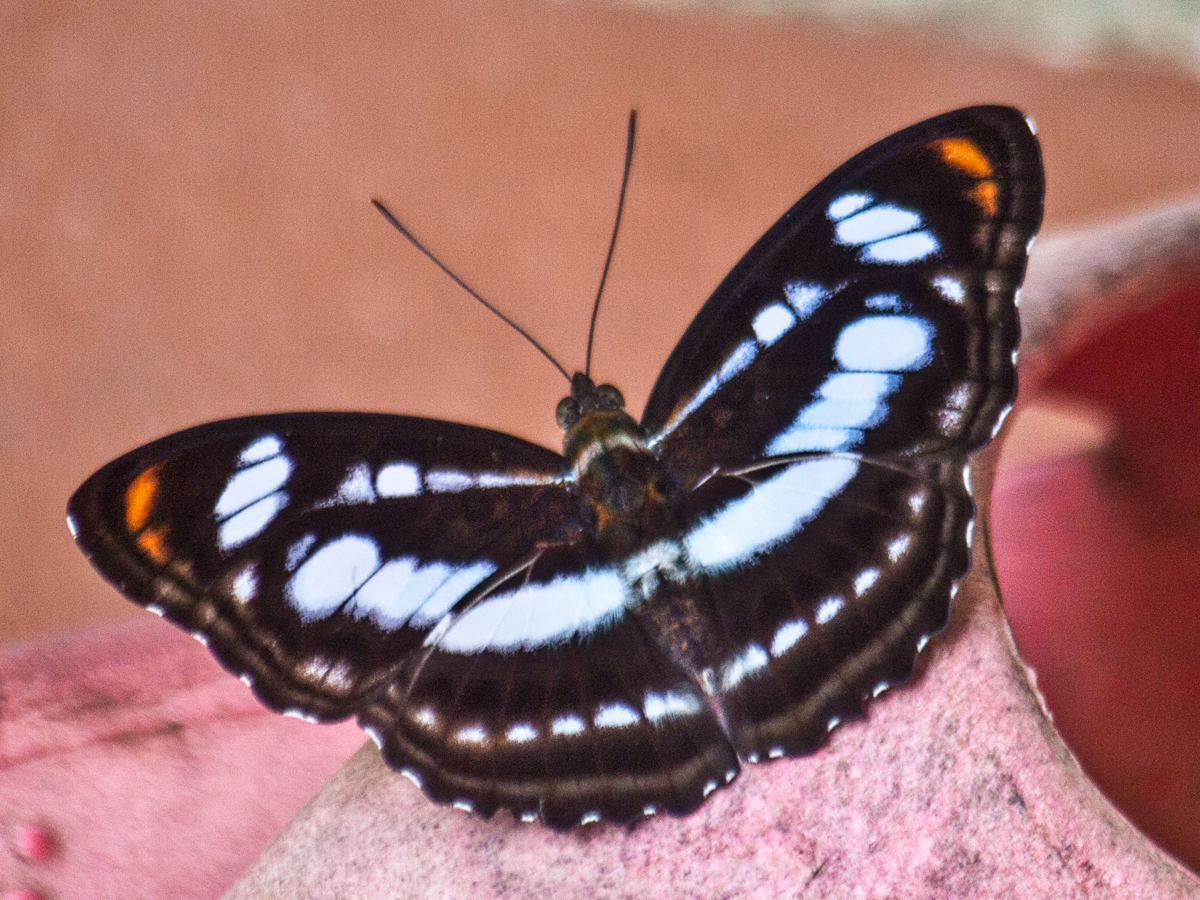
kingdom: Animalia
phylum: Arthropoda
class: Insecta
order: Lepidoptera
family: Nymphalidae
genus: Parathyma
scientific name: Parathyma nefte
